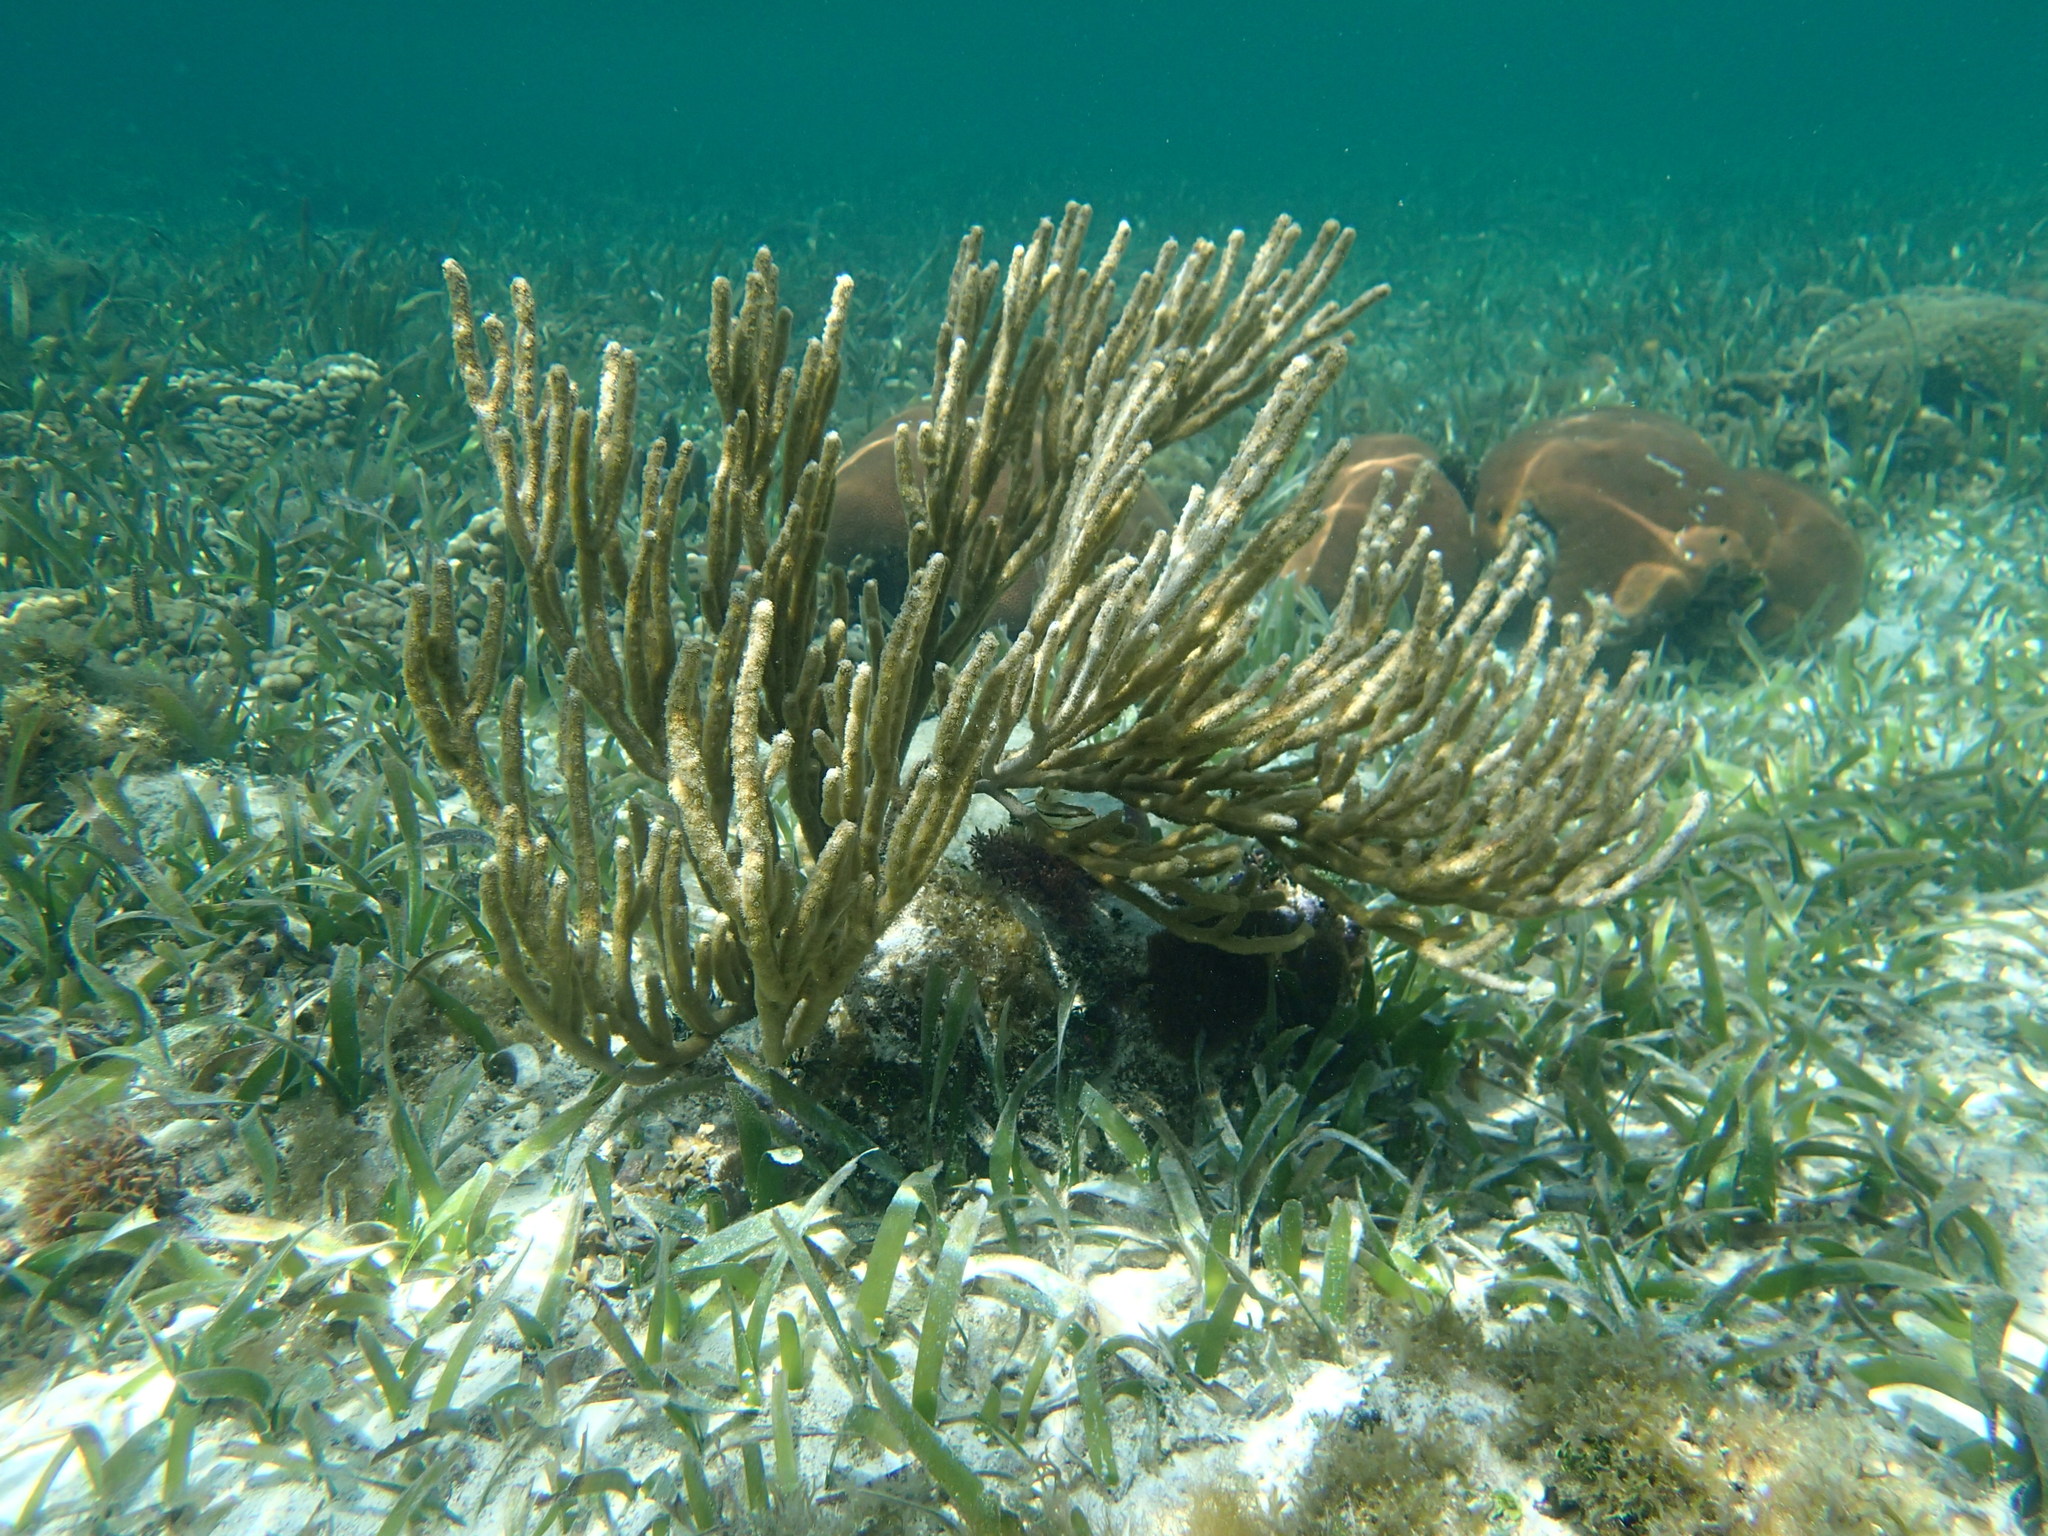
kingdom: Animalia
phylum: Cnidaria
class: Anthozoa
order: Malacalcyonacea
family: Plexauridae
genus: Eunicea
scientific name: Eunicea flexuosa
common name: Sea rod
